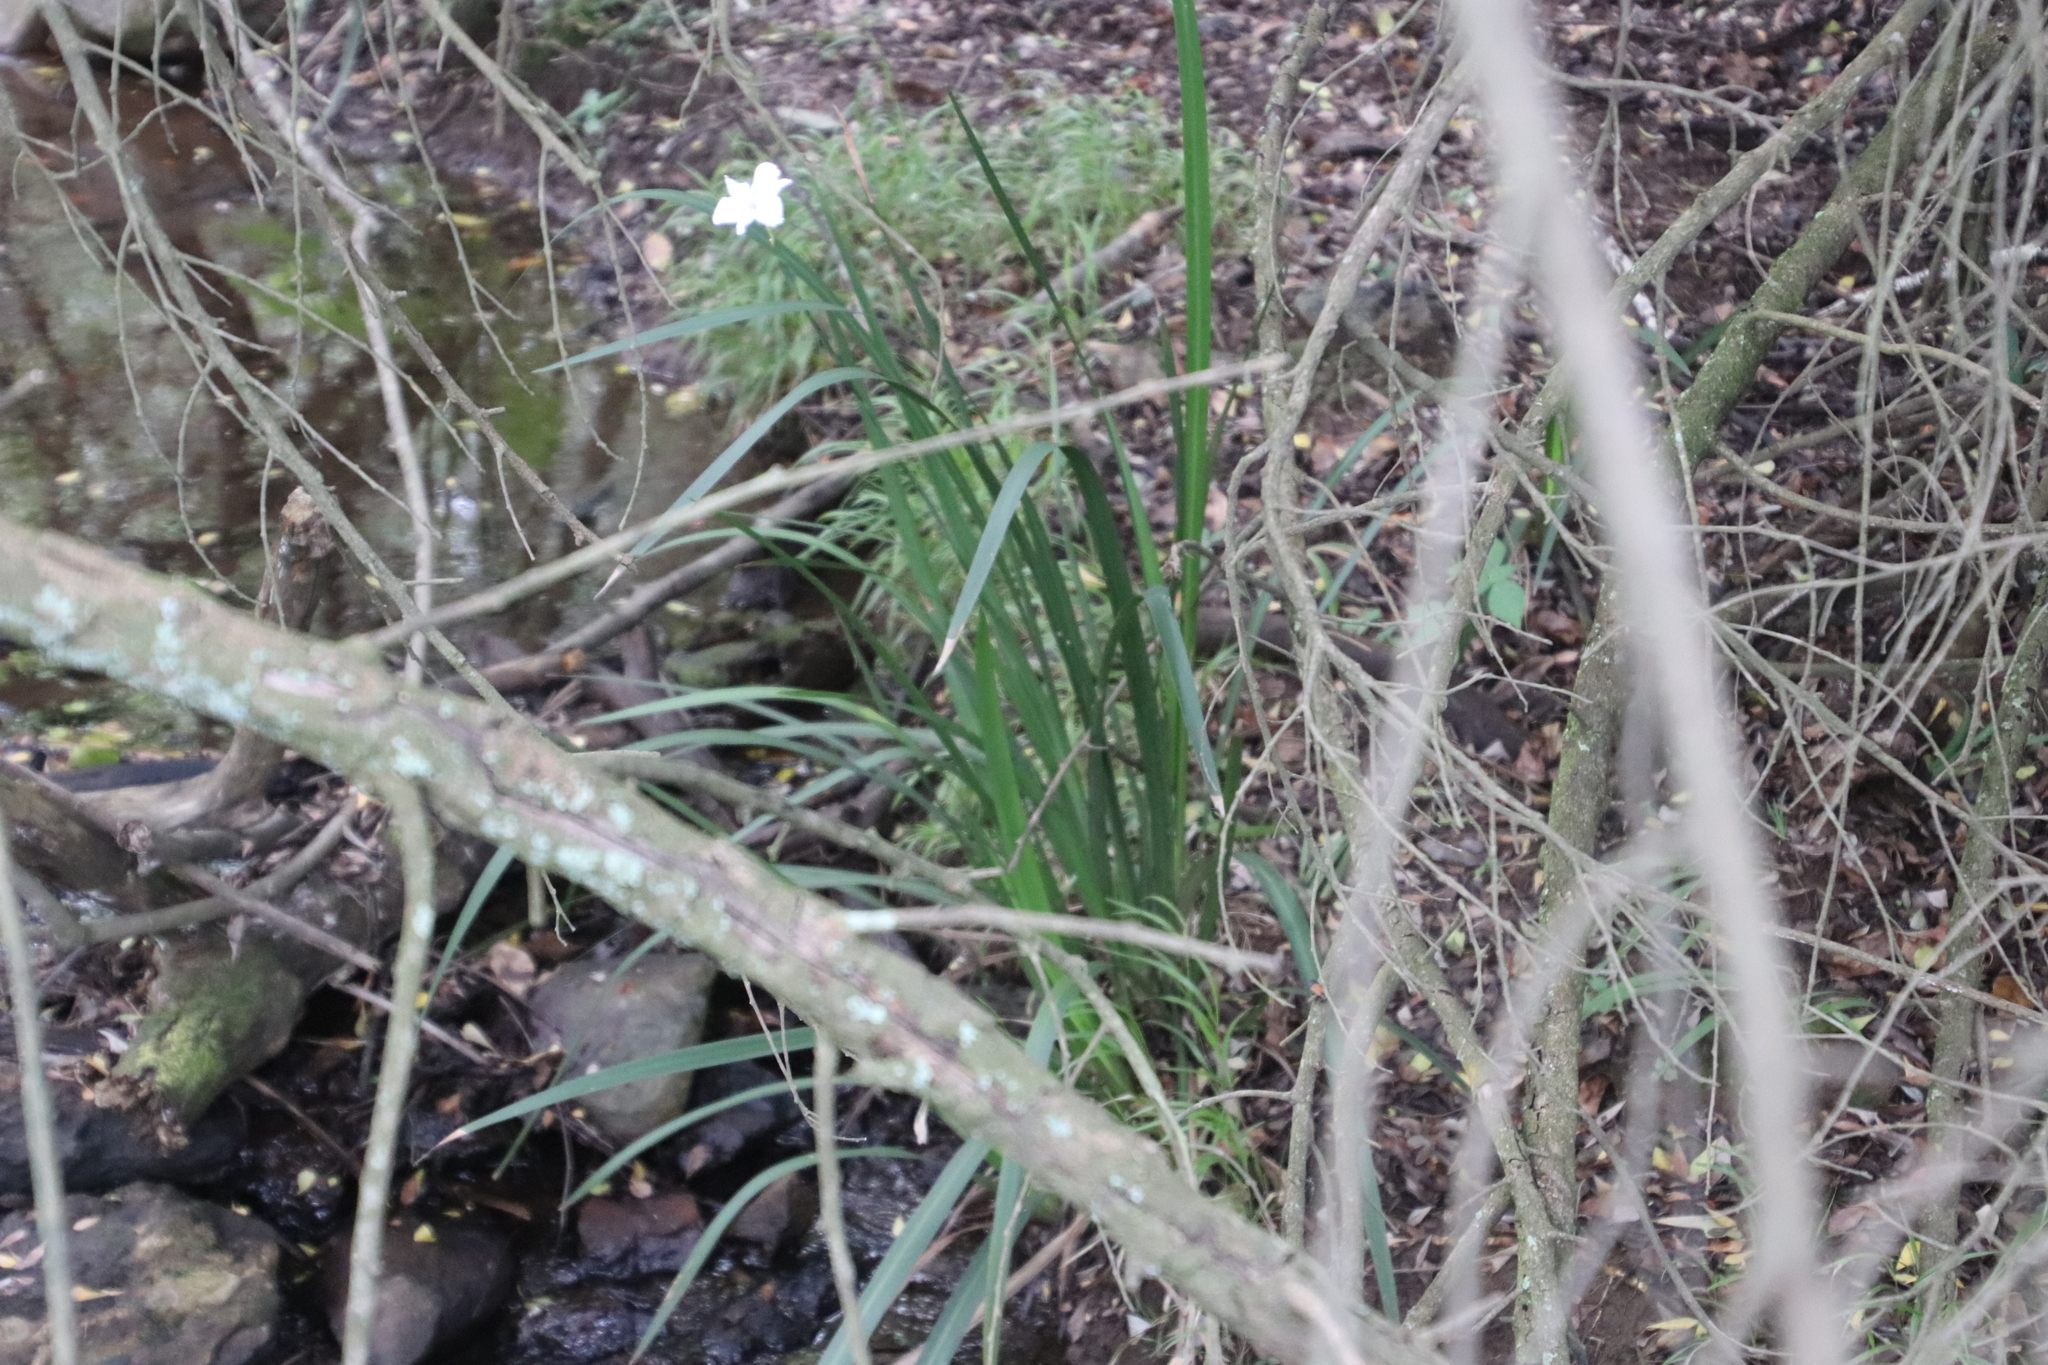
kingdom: Plantae
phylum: Tracheophyta
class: Liliopsida
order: Asparagales
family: Iridaceae
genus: Dietes
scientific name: Dietes iridioides
